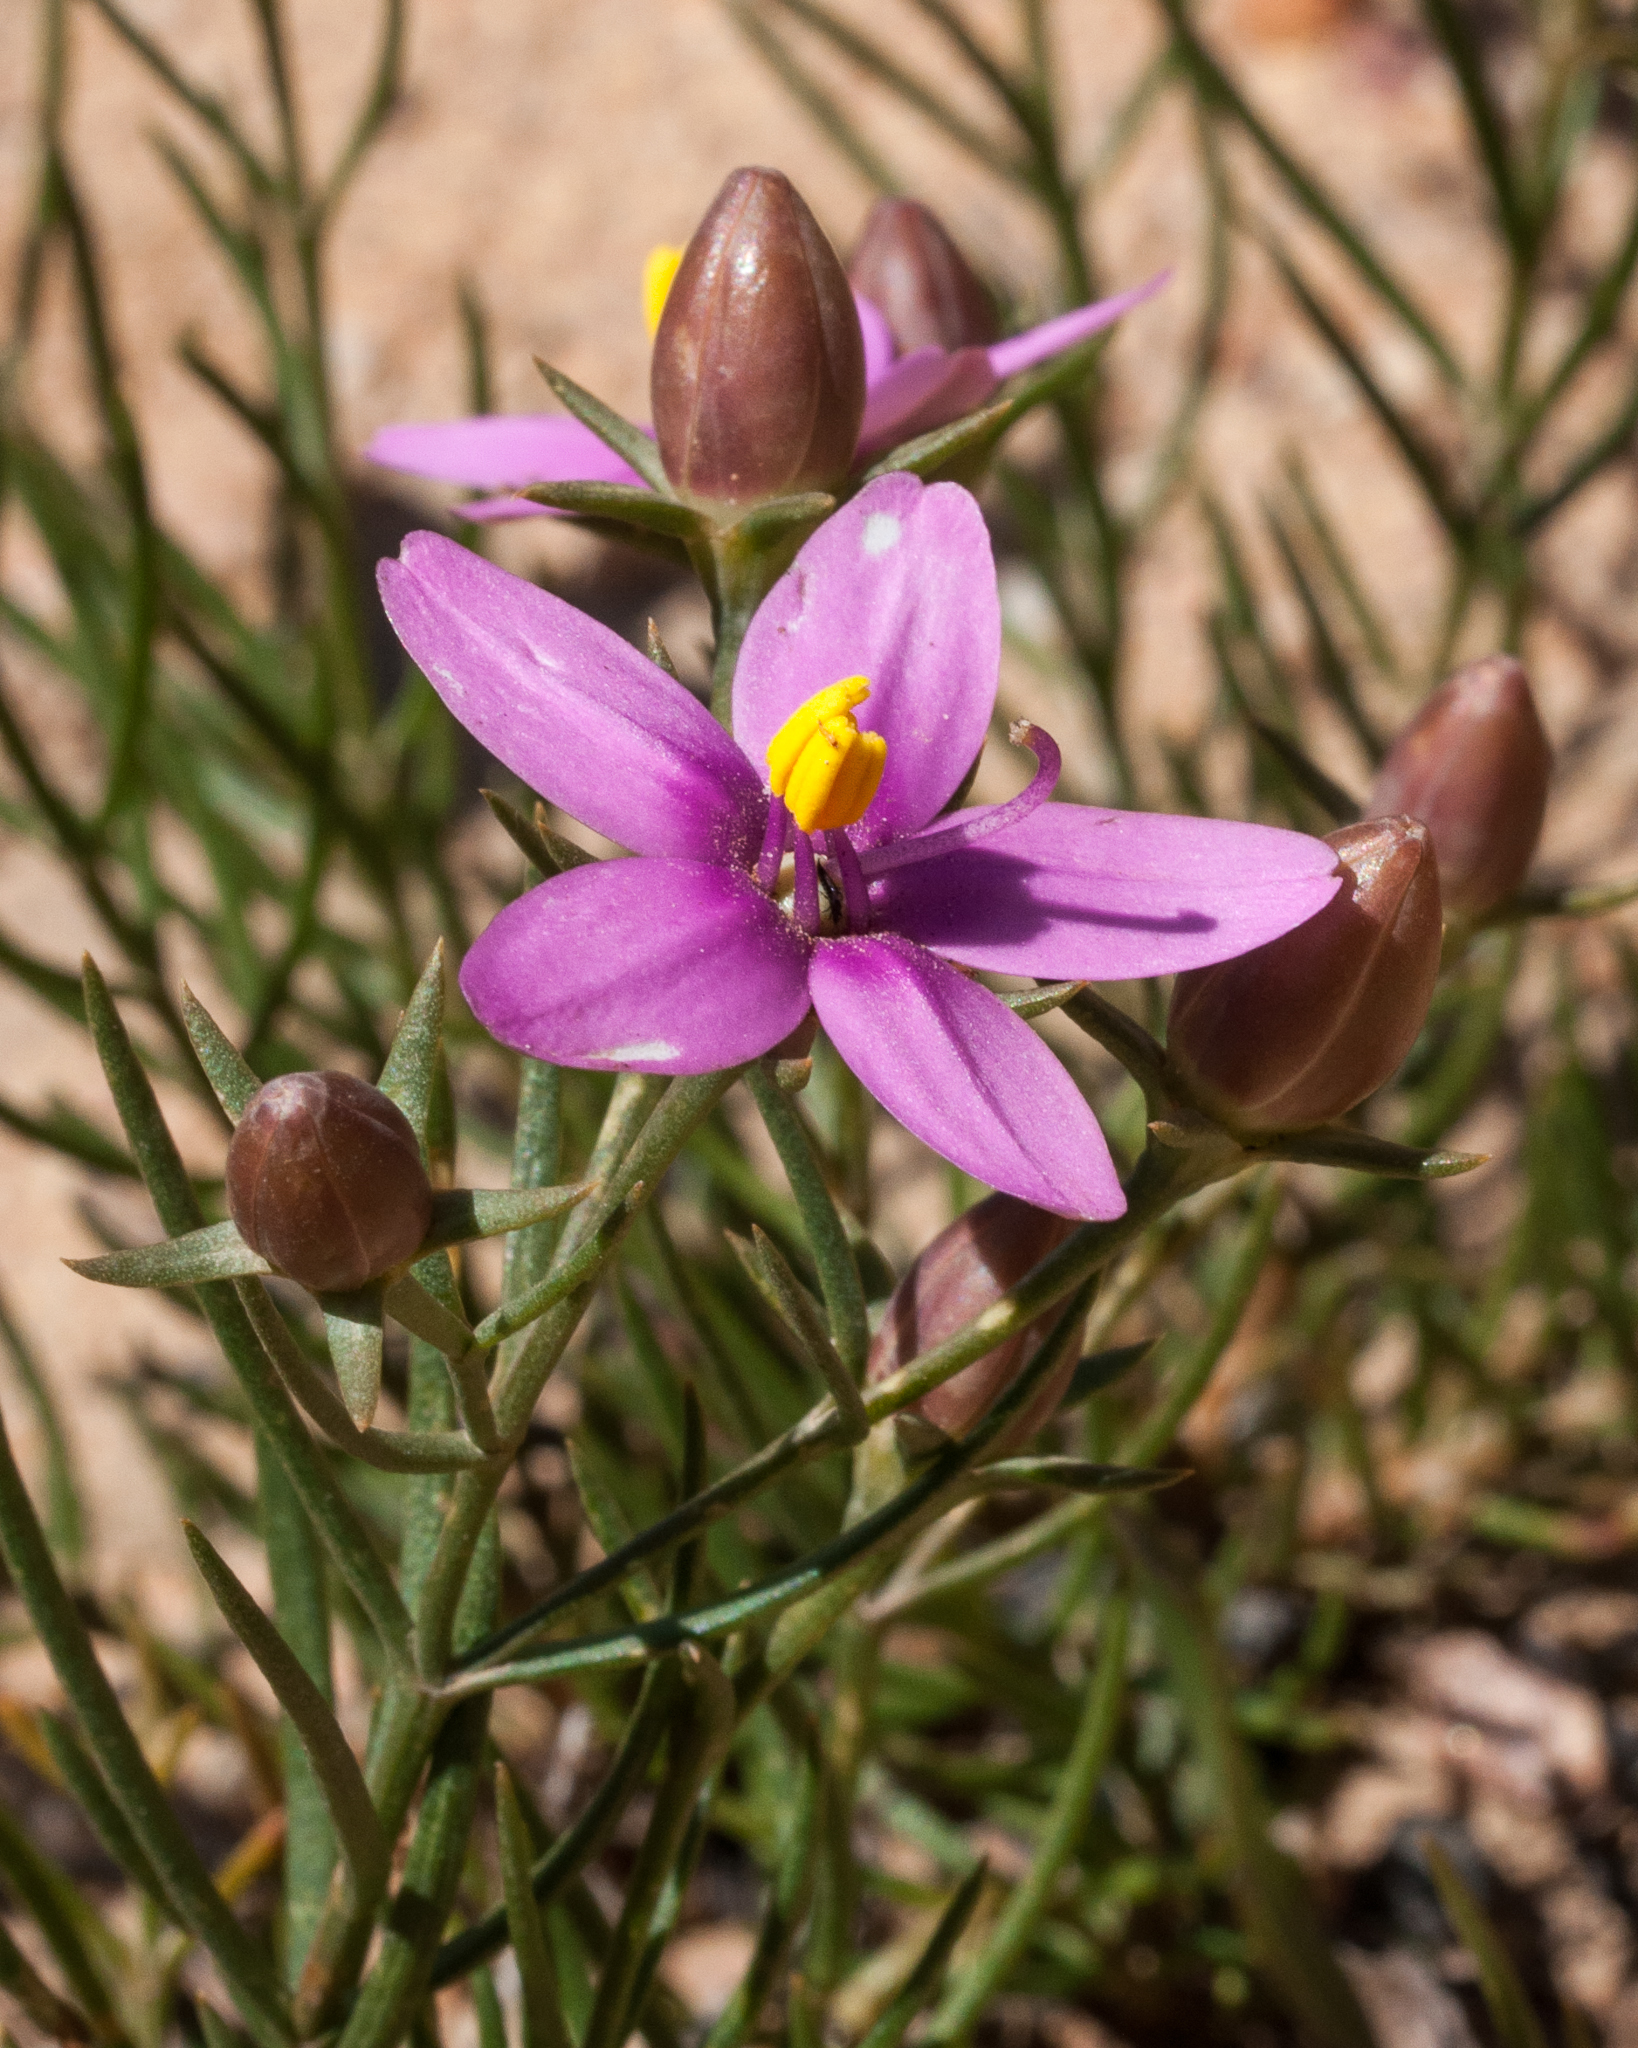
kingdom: Plantae
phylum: Tracheophyta
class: Magnoliopsida
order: Gentianales
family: Gentianaceae
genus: Chironia
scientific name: Chironia linoides
